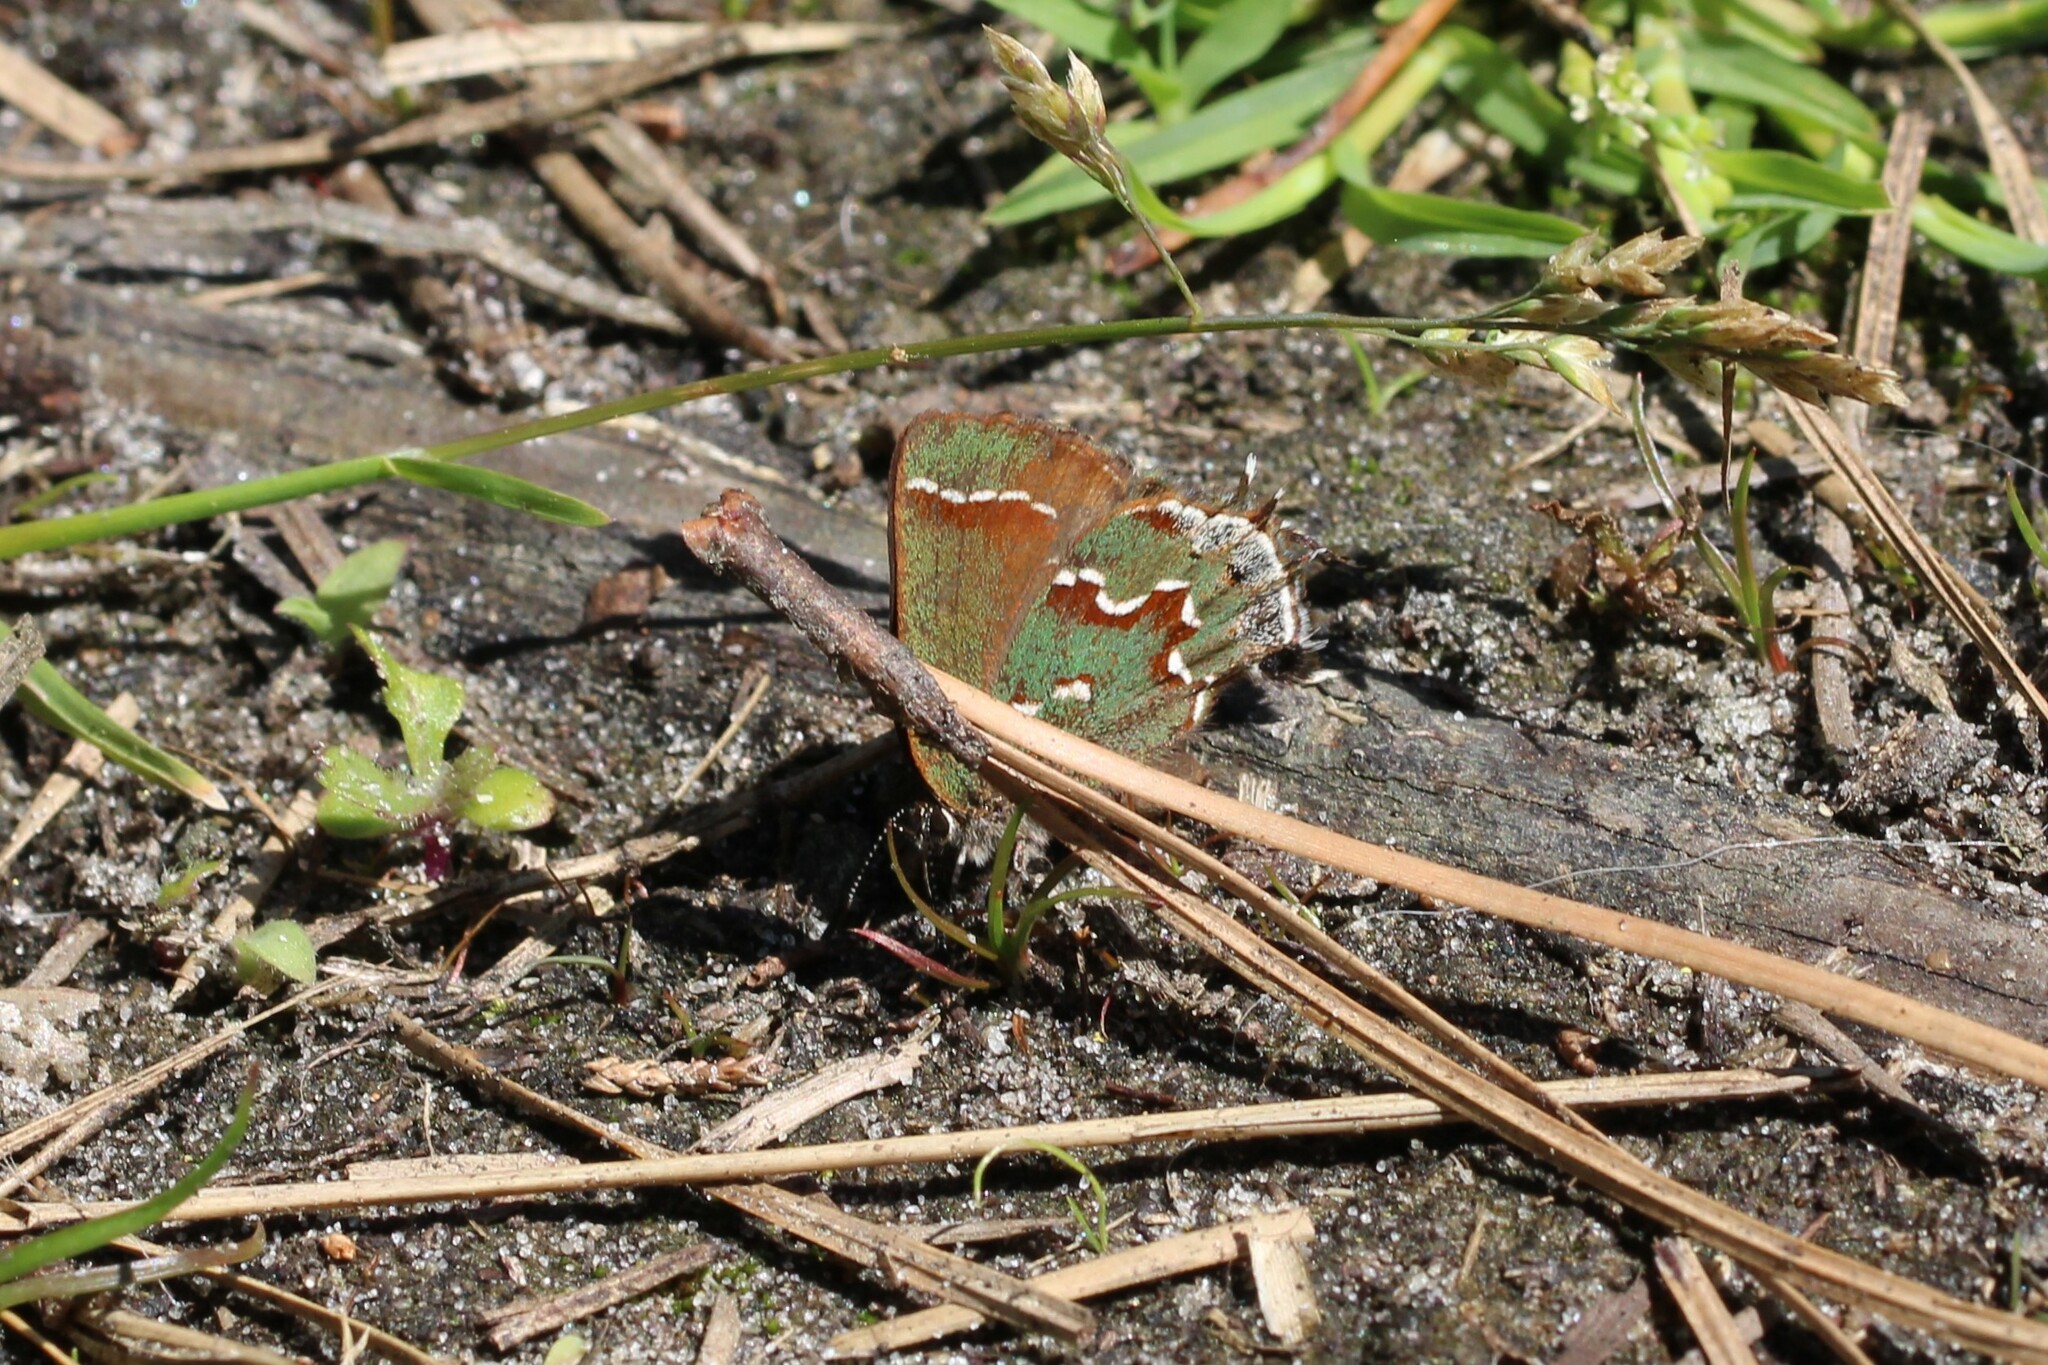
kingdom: Animalia
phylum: Arthropoda
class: Insecta
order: Lepidoptera
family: Lycaenidae
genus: Mitoura
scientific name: Mitoura gryneus
